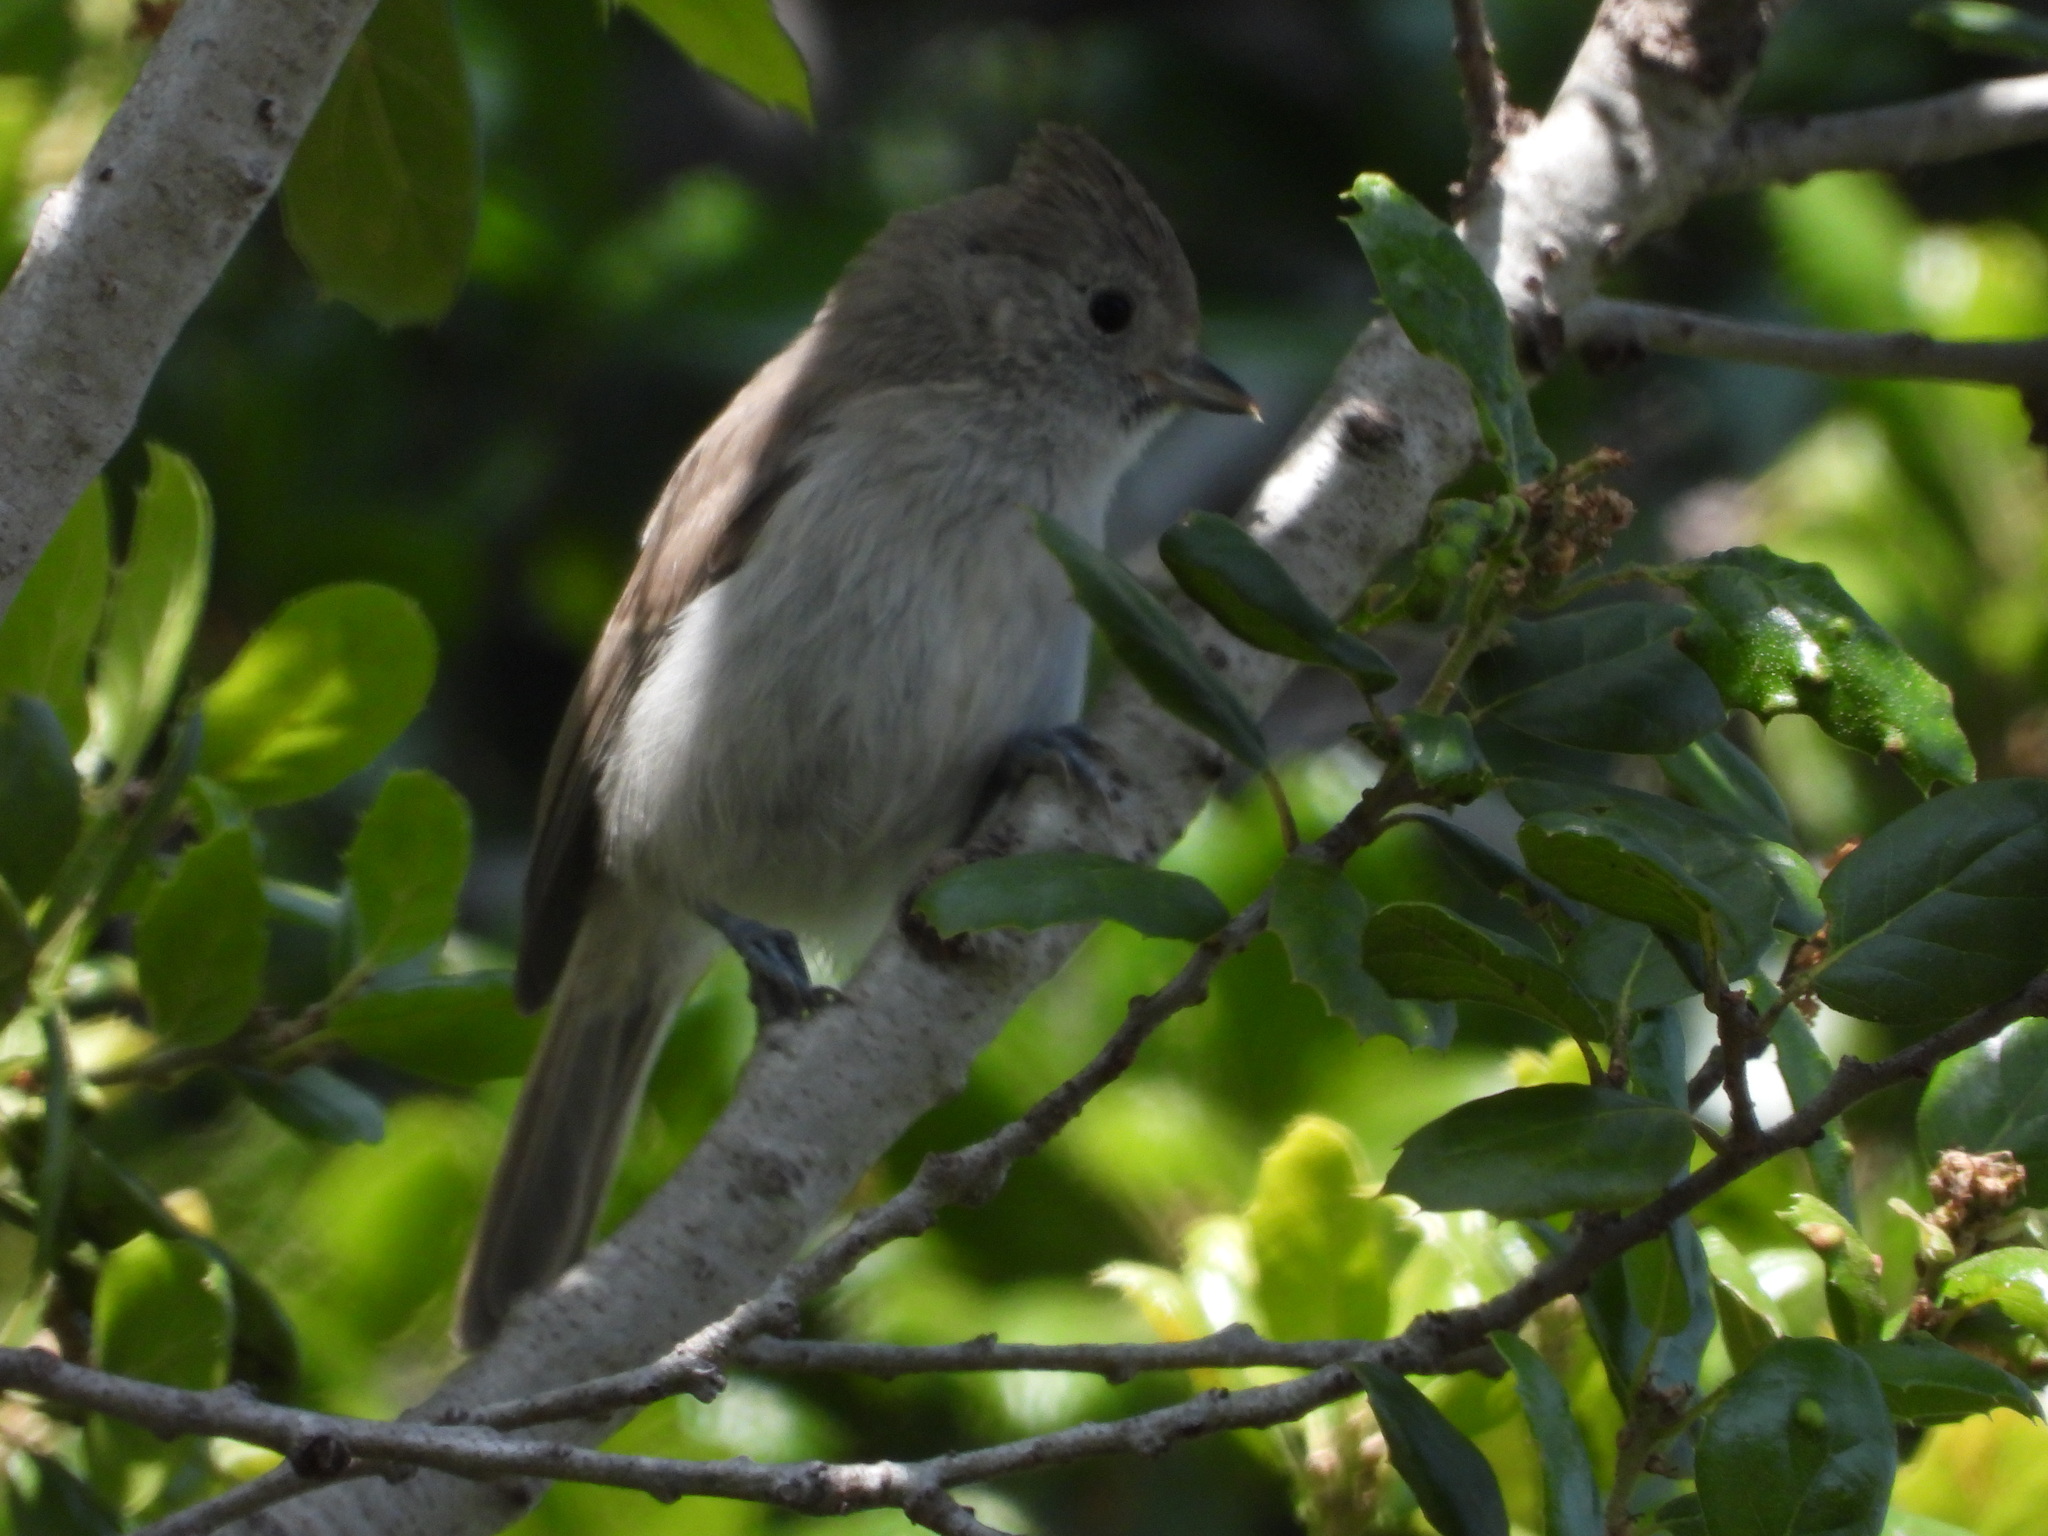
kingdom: Animalia
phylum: Chordata
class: Aves
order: Passeriformes
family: Paridae
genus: Baeolophus
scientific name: Baeolophus inornatus
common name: Oak titmouse
